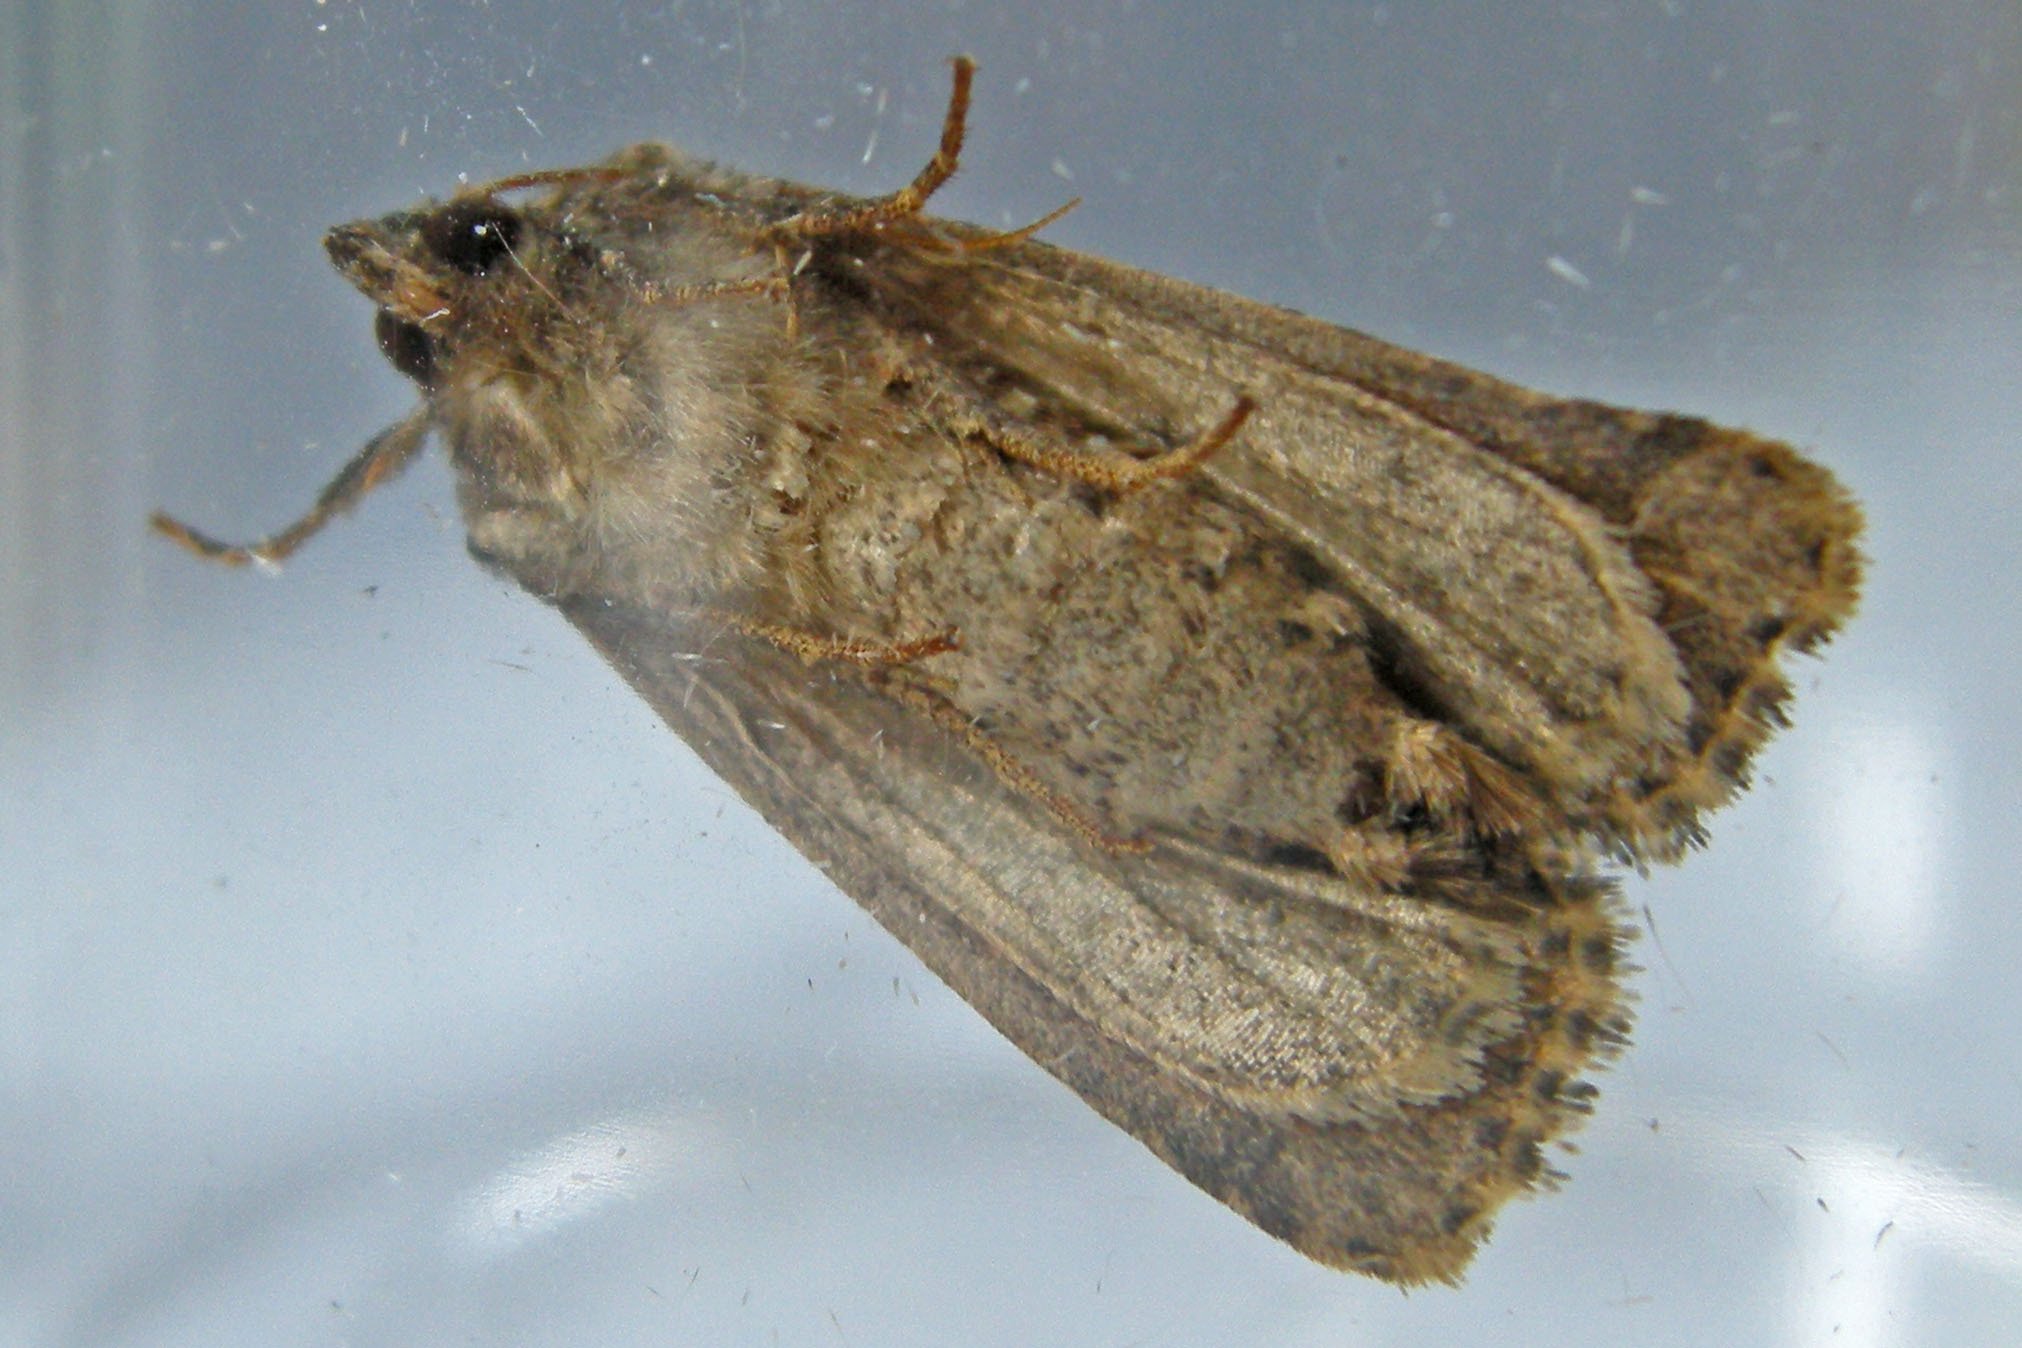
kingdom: Animalia
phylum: Arthropoda
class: Insecta
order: Lepidoptera
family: Noctuidae
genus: Xylomoia
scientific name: Xylomoia chagnoni
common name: Reed canary grass borer moth
